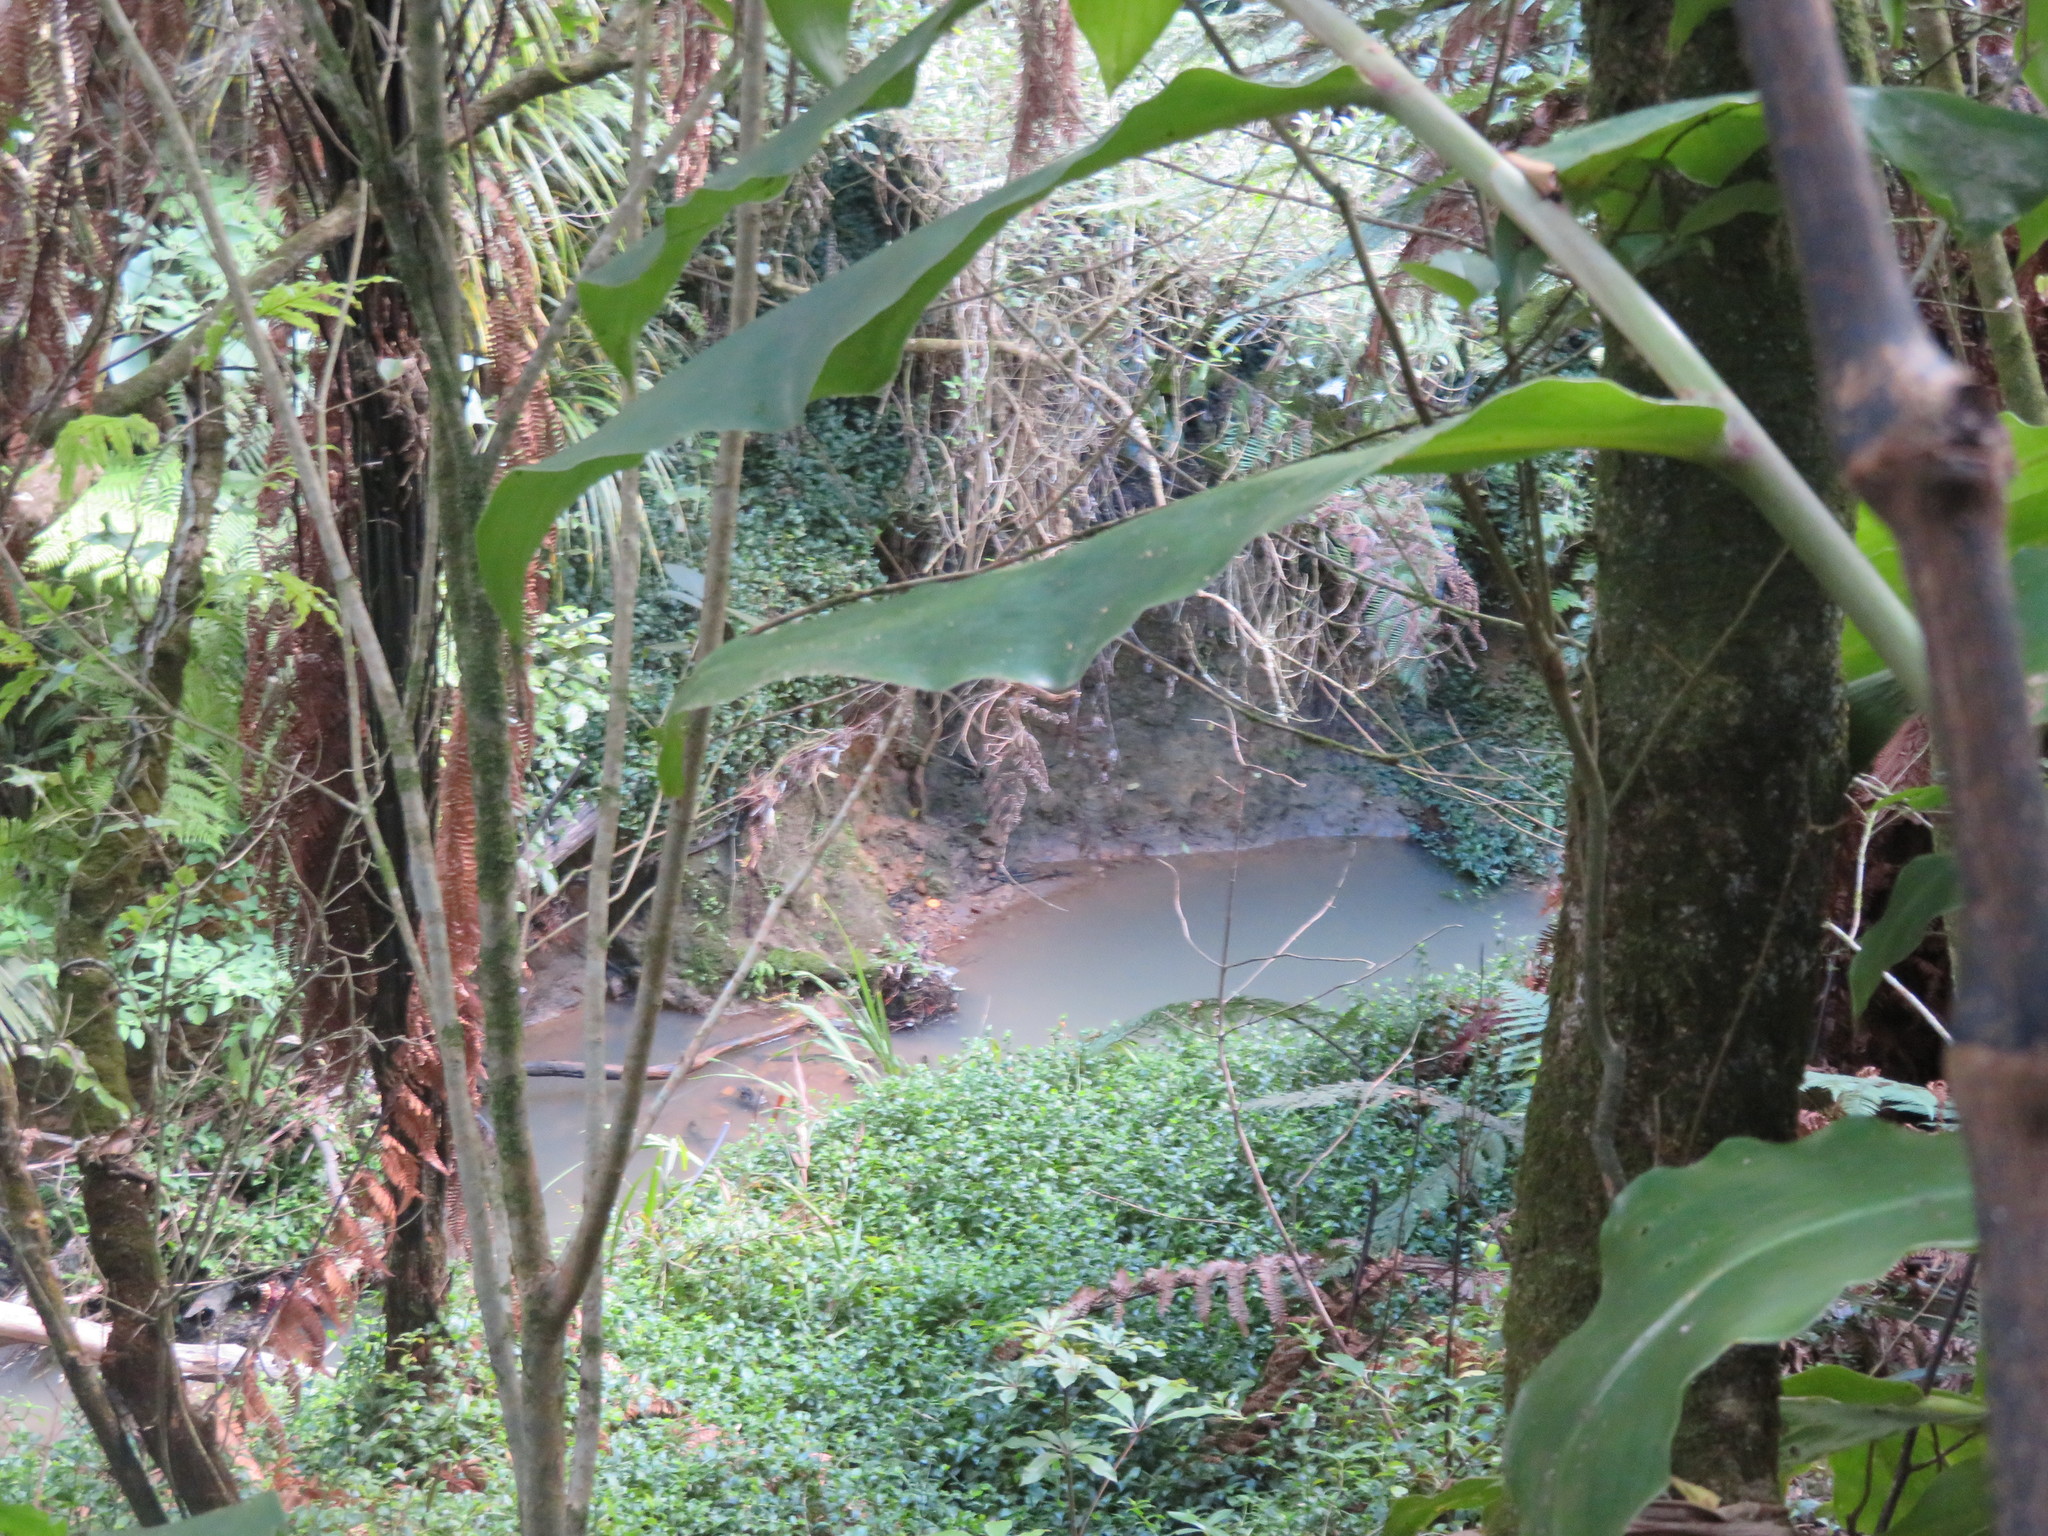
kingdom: Plantae
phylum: Tracheophyta
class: Liliopsida
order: Commelinales
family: Commelinaceae
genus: Tradescantia
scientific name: Tradescantia fluminensis
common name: Wandering-jew
